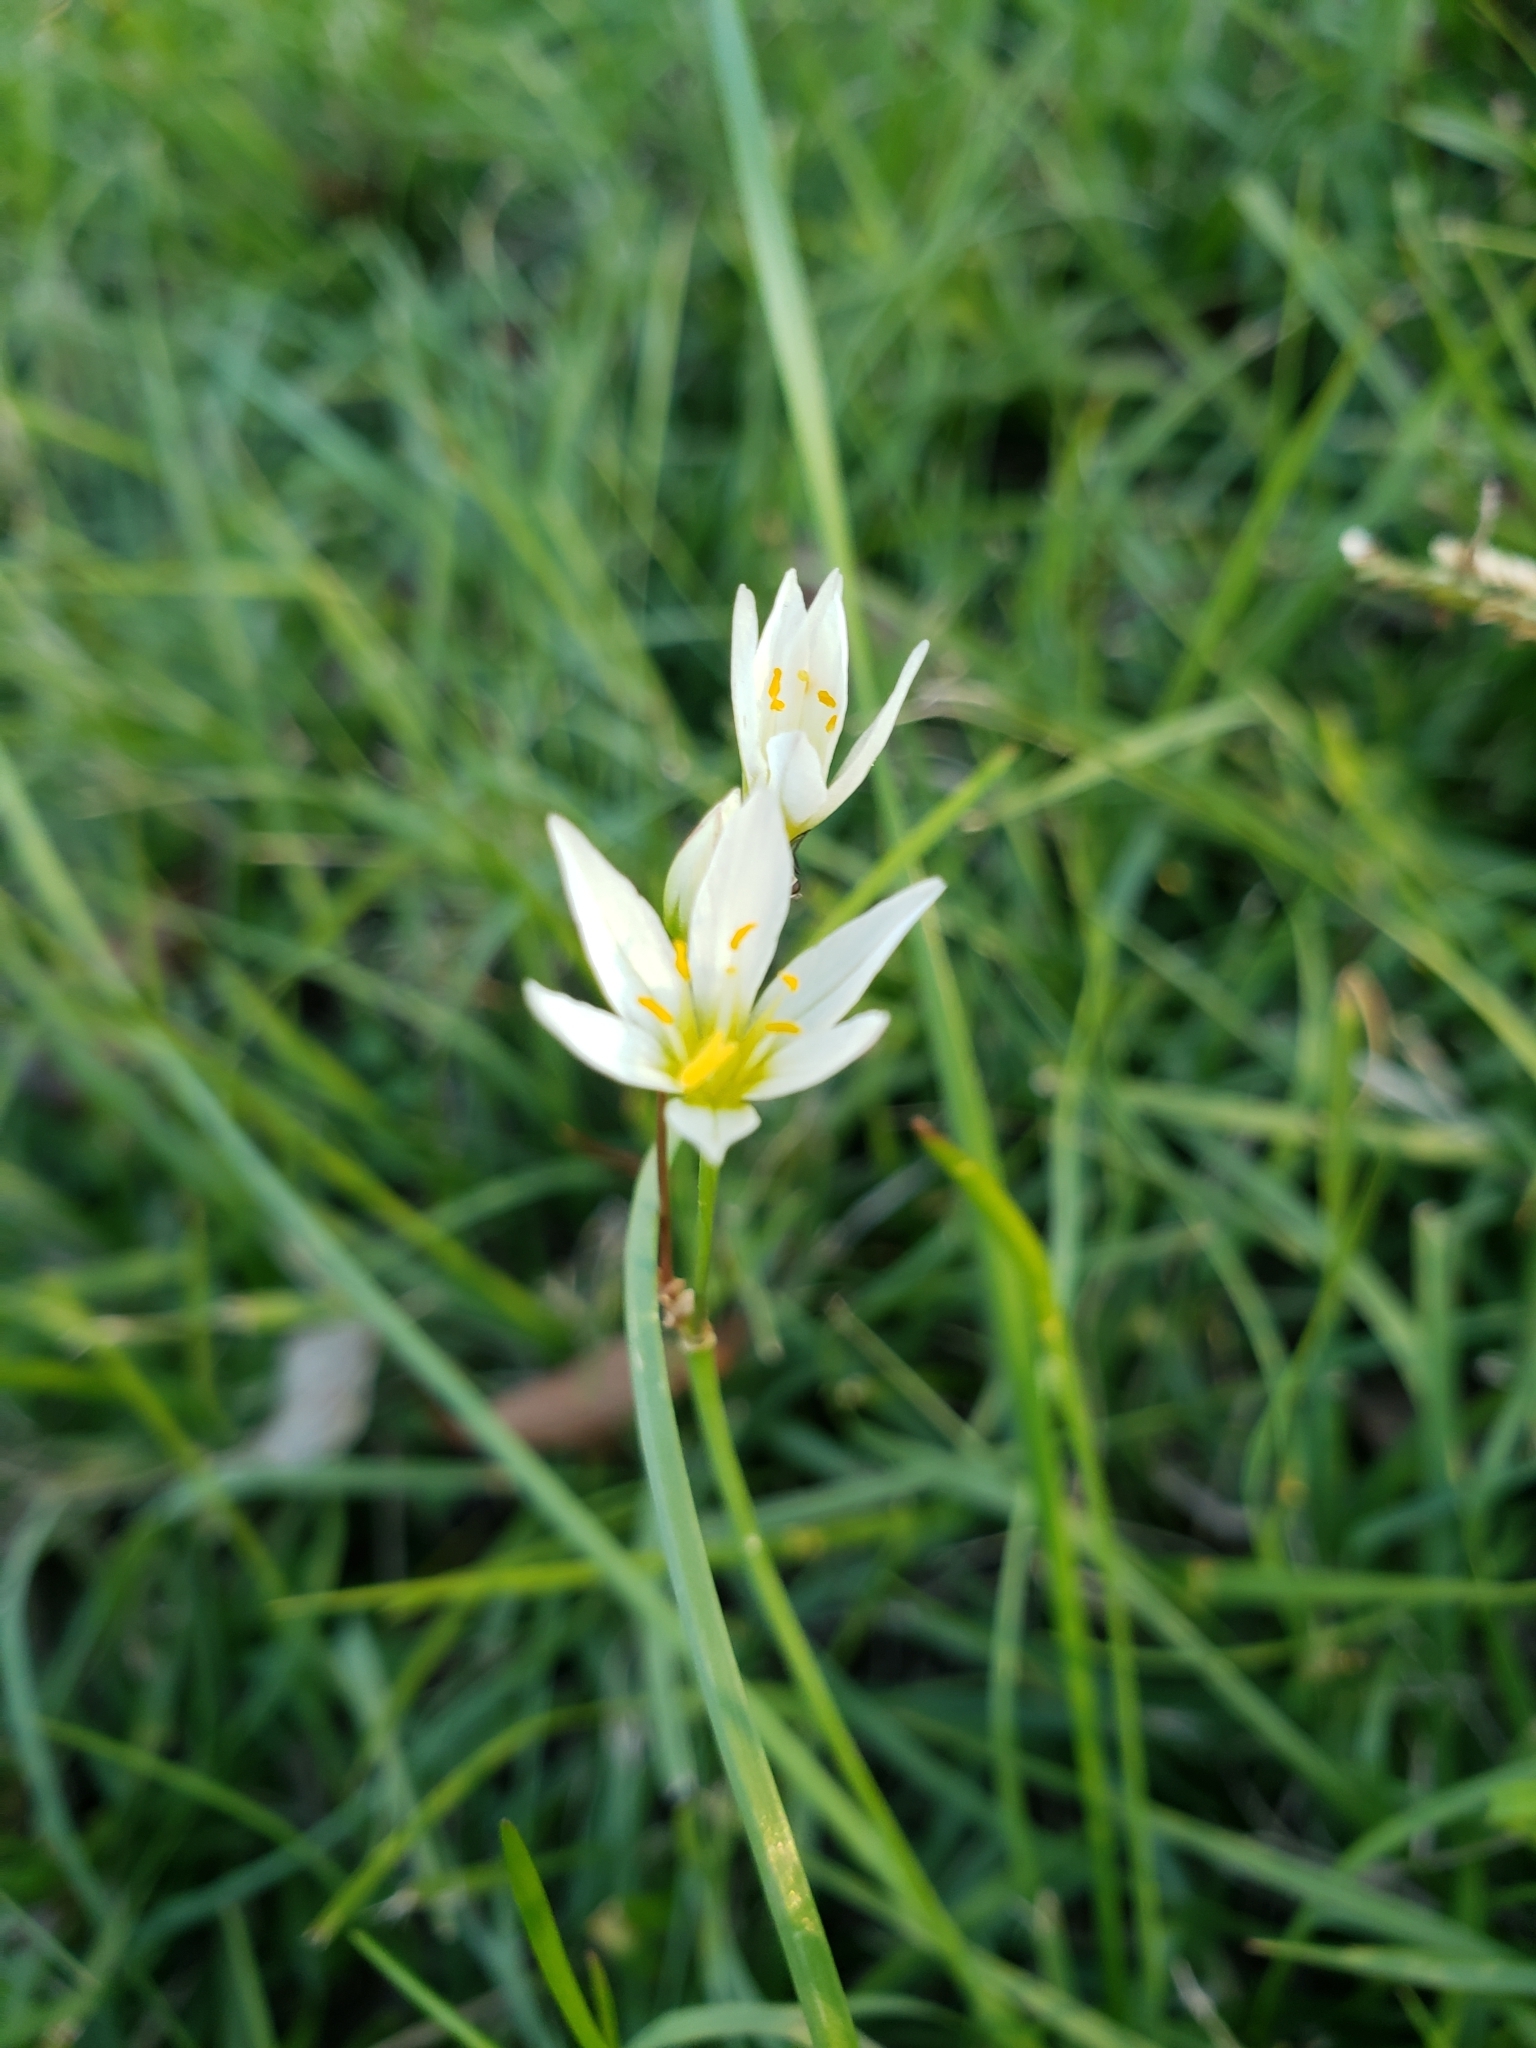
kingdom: Plantae
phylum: Tracheophyta
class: Liliopsida
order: Asparagales
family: Amaryllidaceae
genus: Nothoscordum
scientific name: Nothoscordum bivalve
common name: Crow-poison
